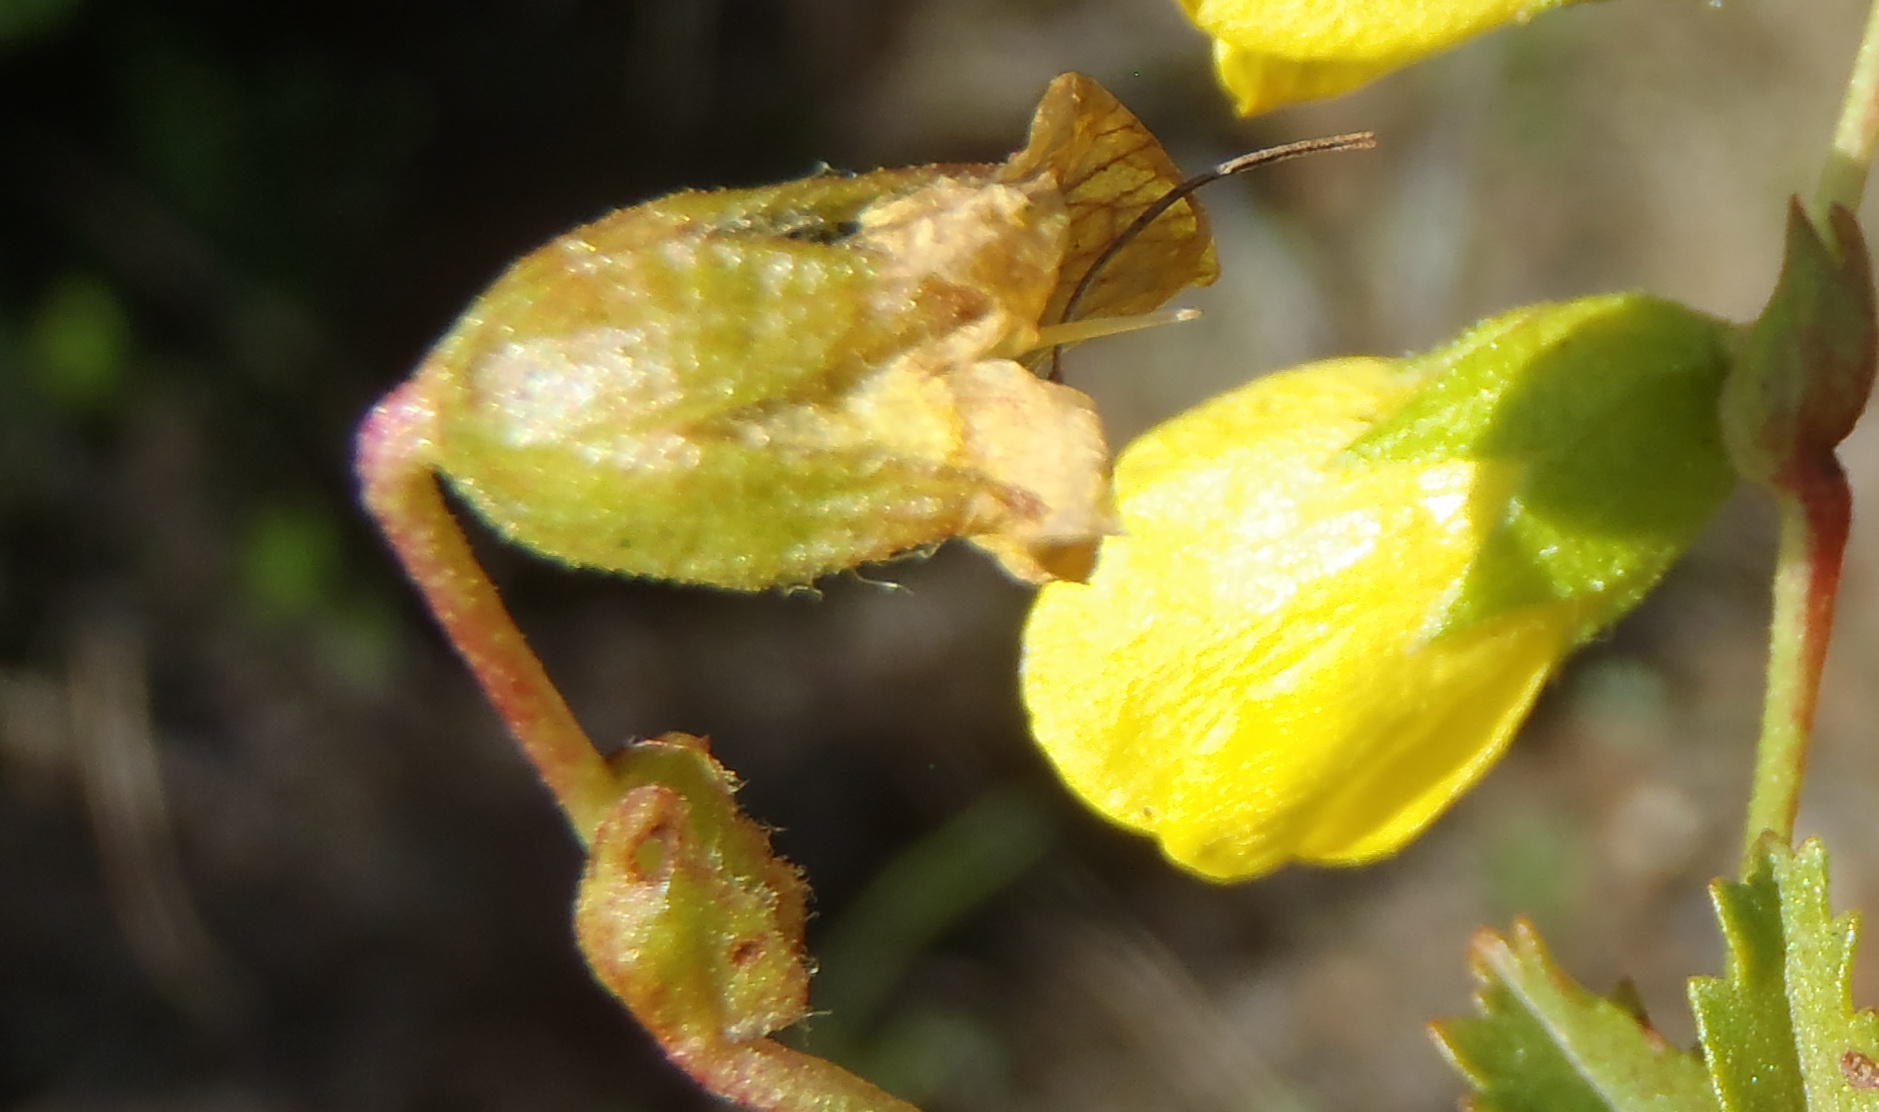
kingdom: Plantae
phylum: Tracheophyta
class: Magnoliopsida
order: Malvales
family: Malvaceae
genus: Hermannia
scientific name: Hermannia saccifera
